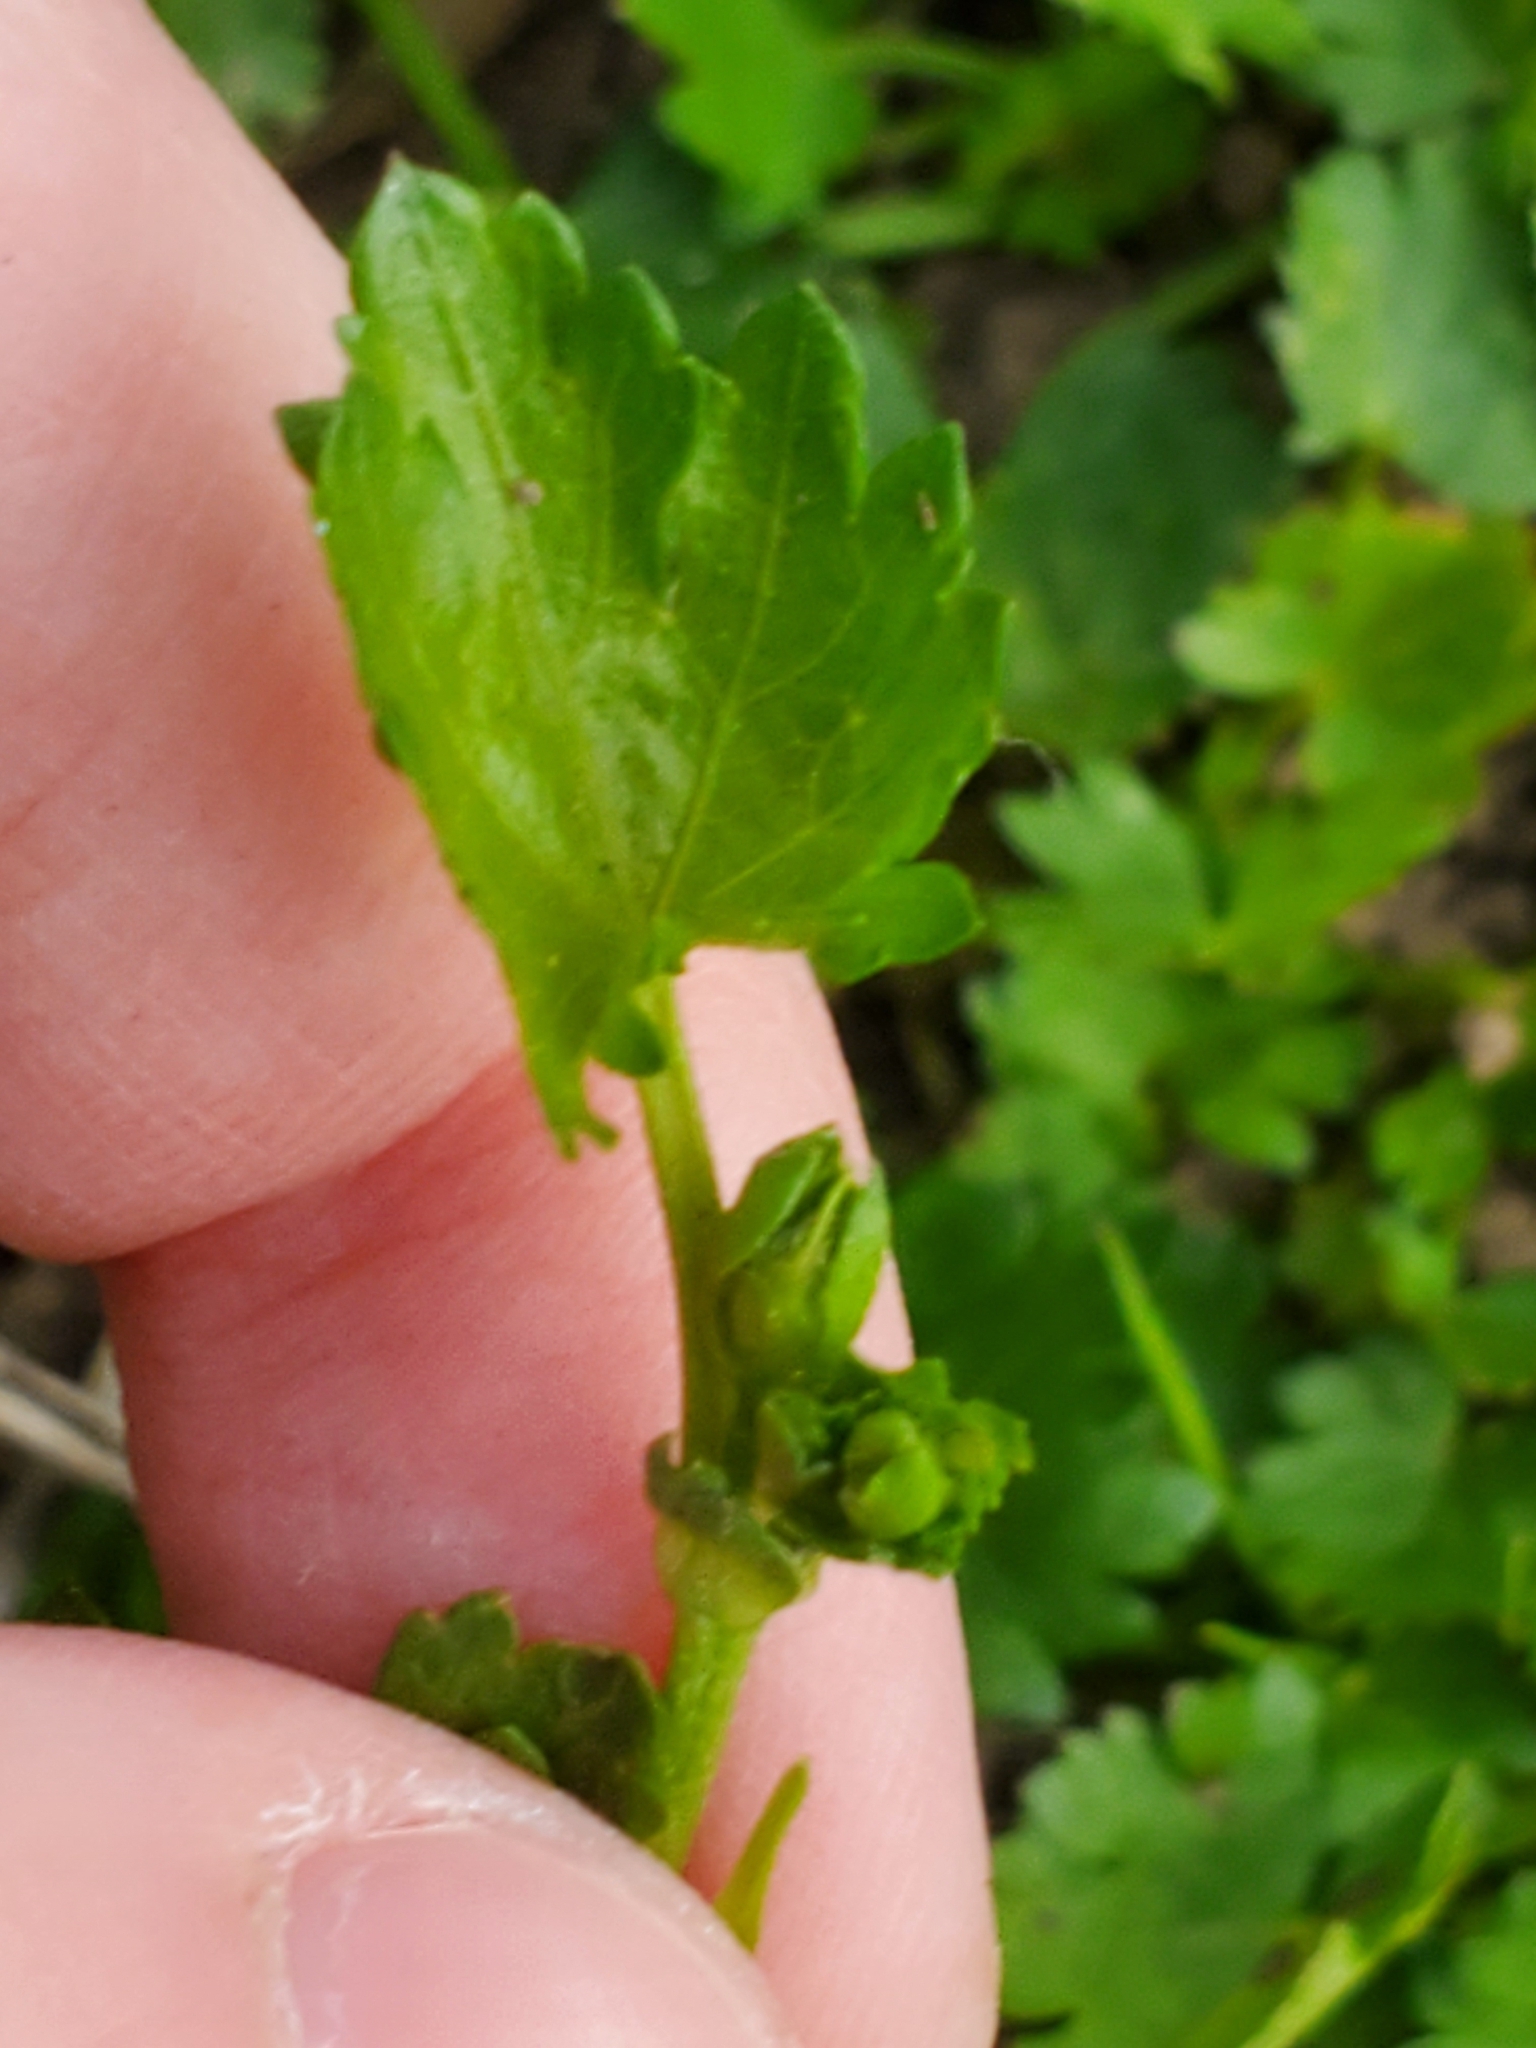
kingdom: Plantae
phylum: Tracheophyta
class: Magnoliopsida
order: Malvales
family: Malvaceae
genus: Modiola
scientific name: Modiola caroliniana
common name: Carolina bristlemallow
